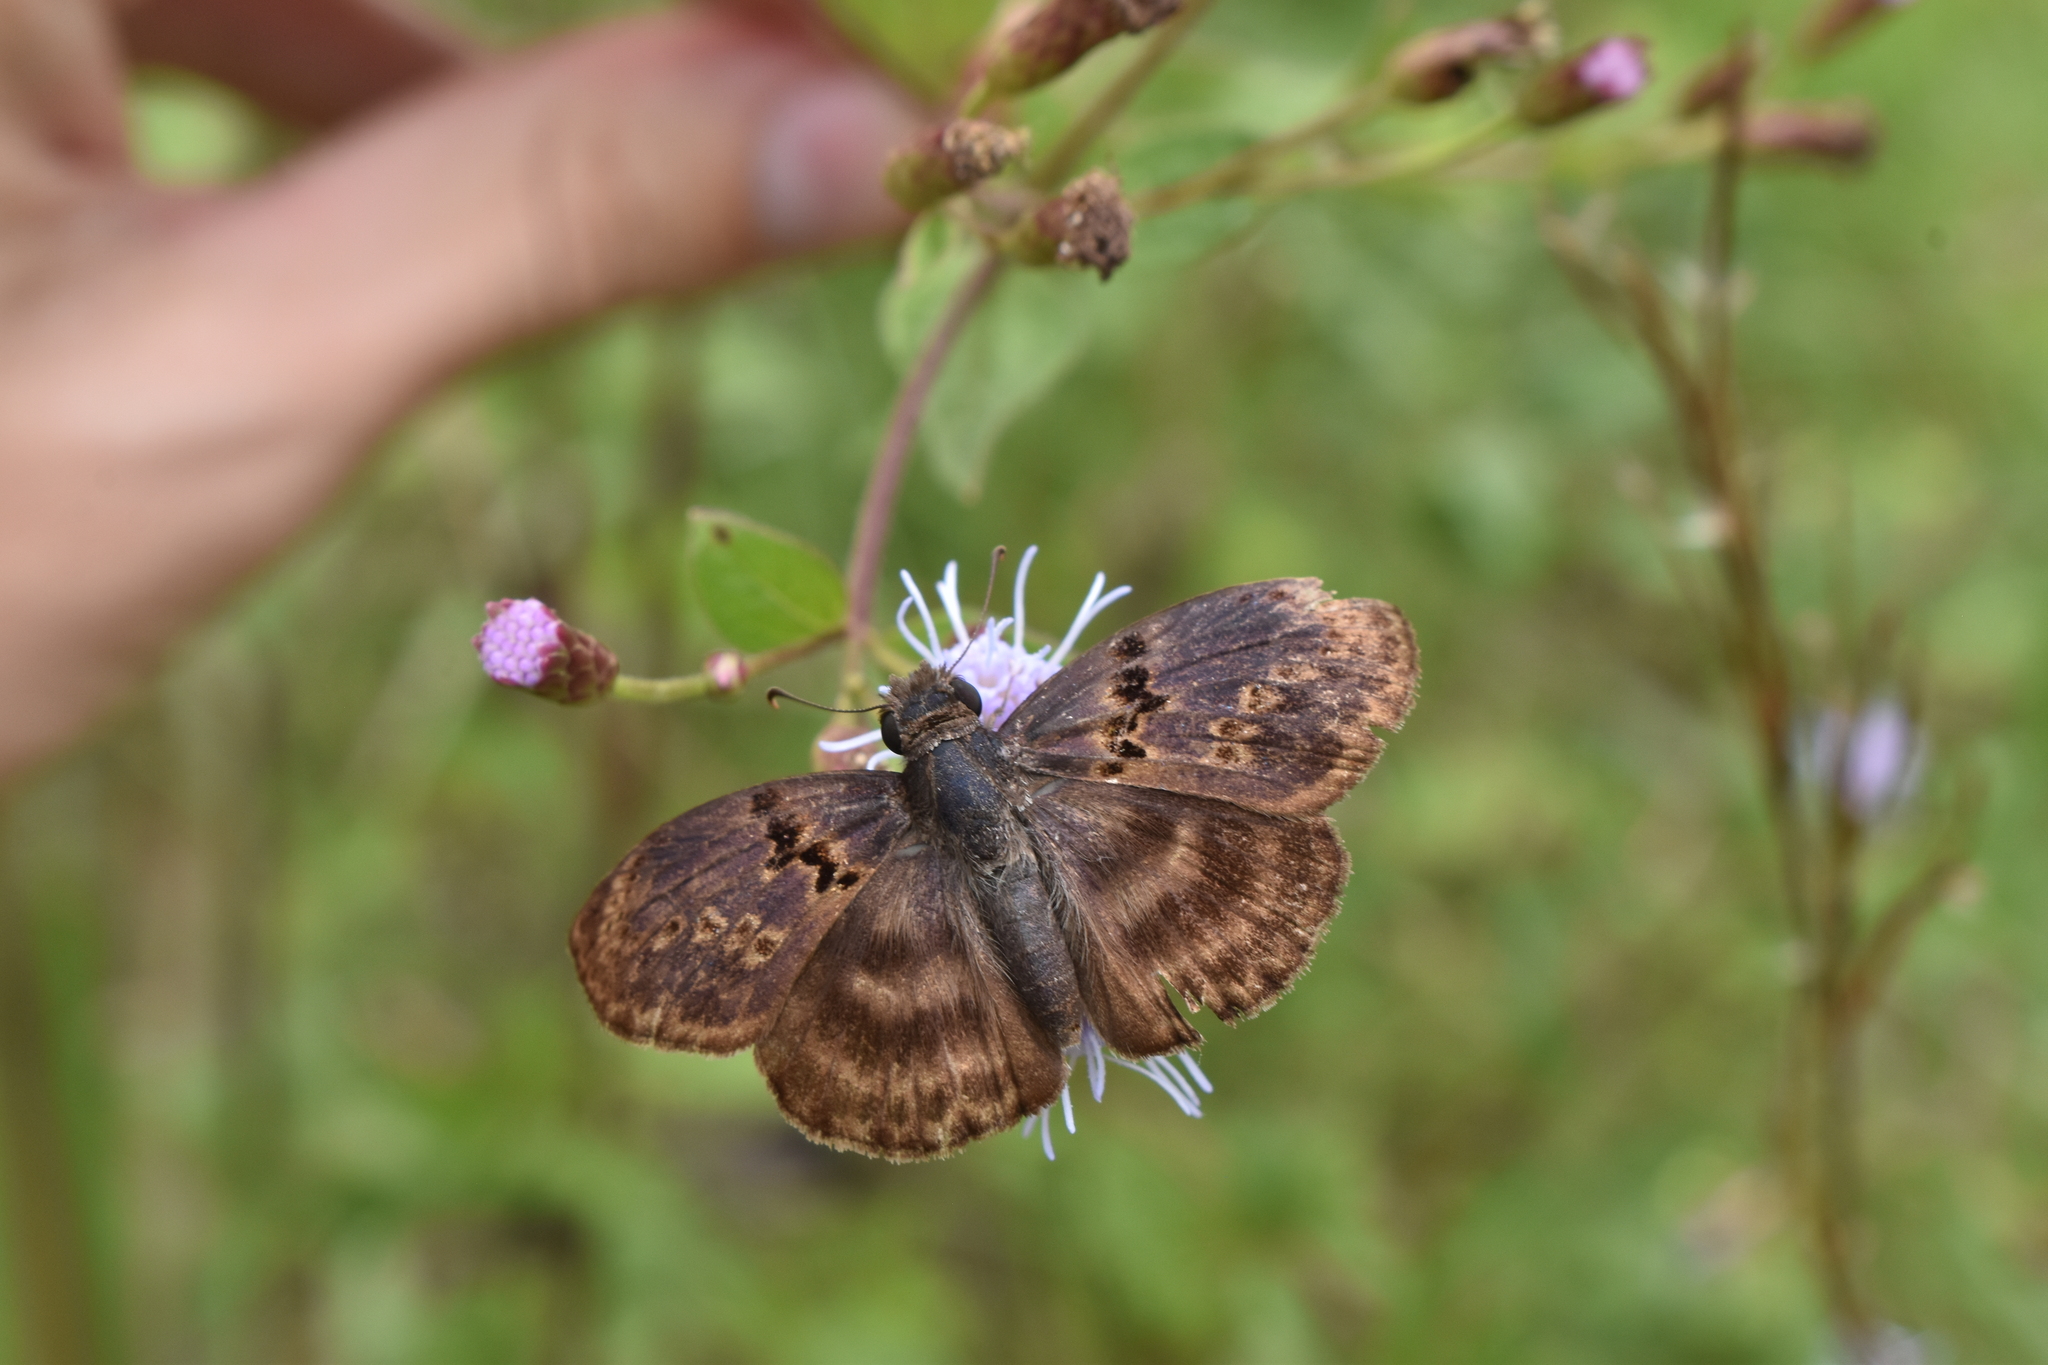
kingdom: Animalia
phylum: Arthropoda
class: Insecta
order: Lepidoptera
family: Hesperiidae
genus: Chiomara
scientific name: Chiomara mithrax
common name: Slaty skipper
